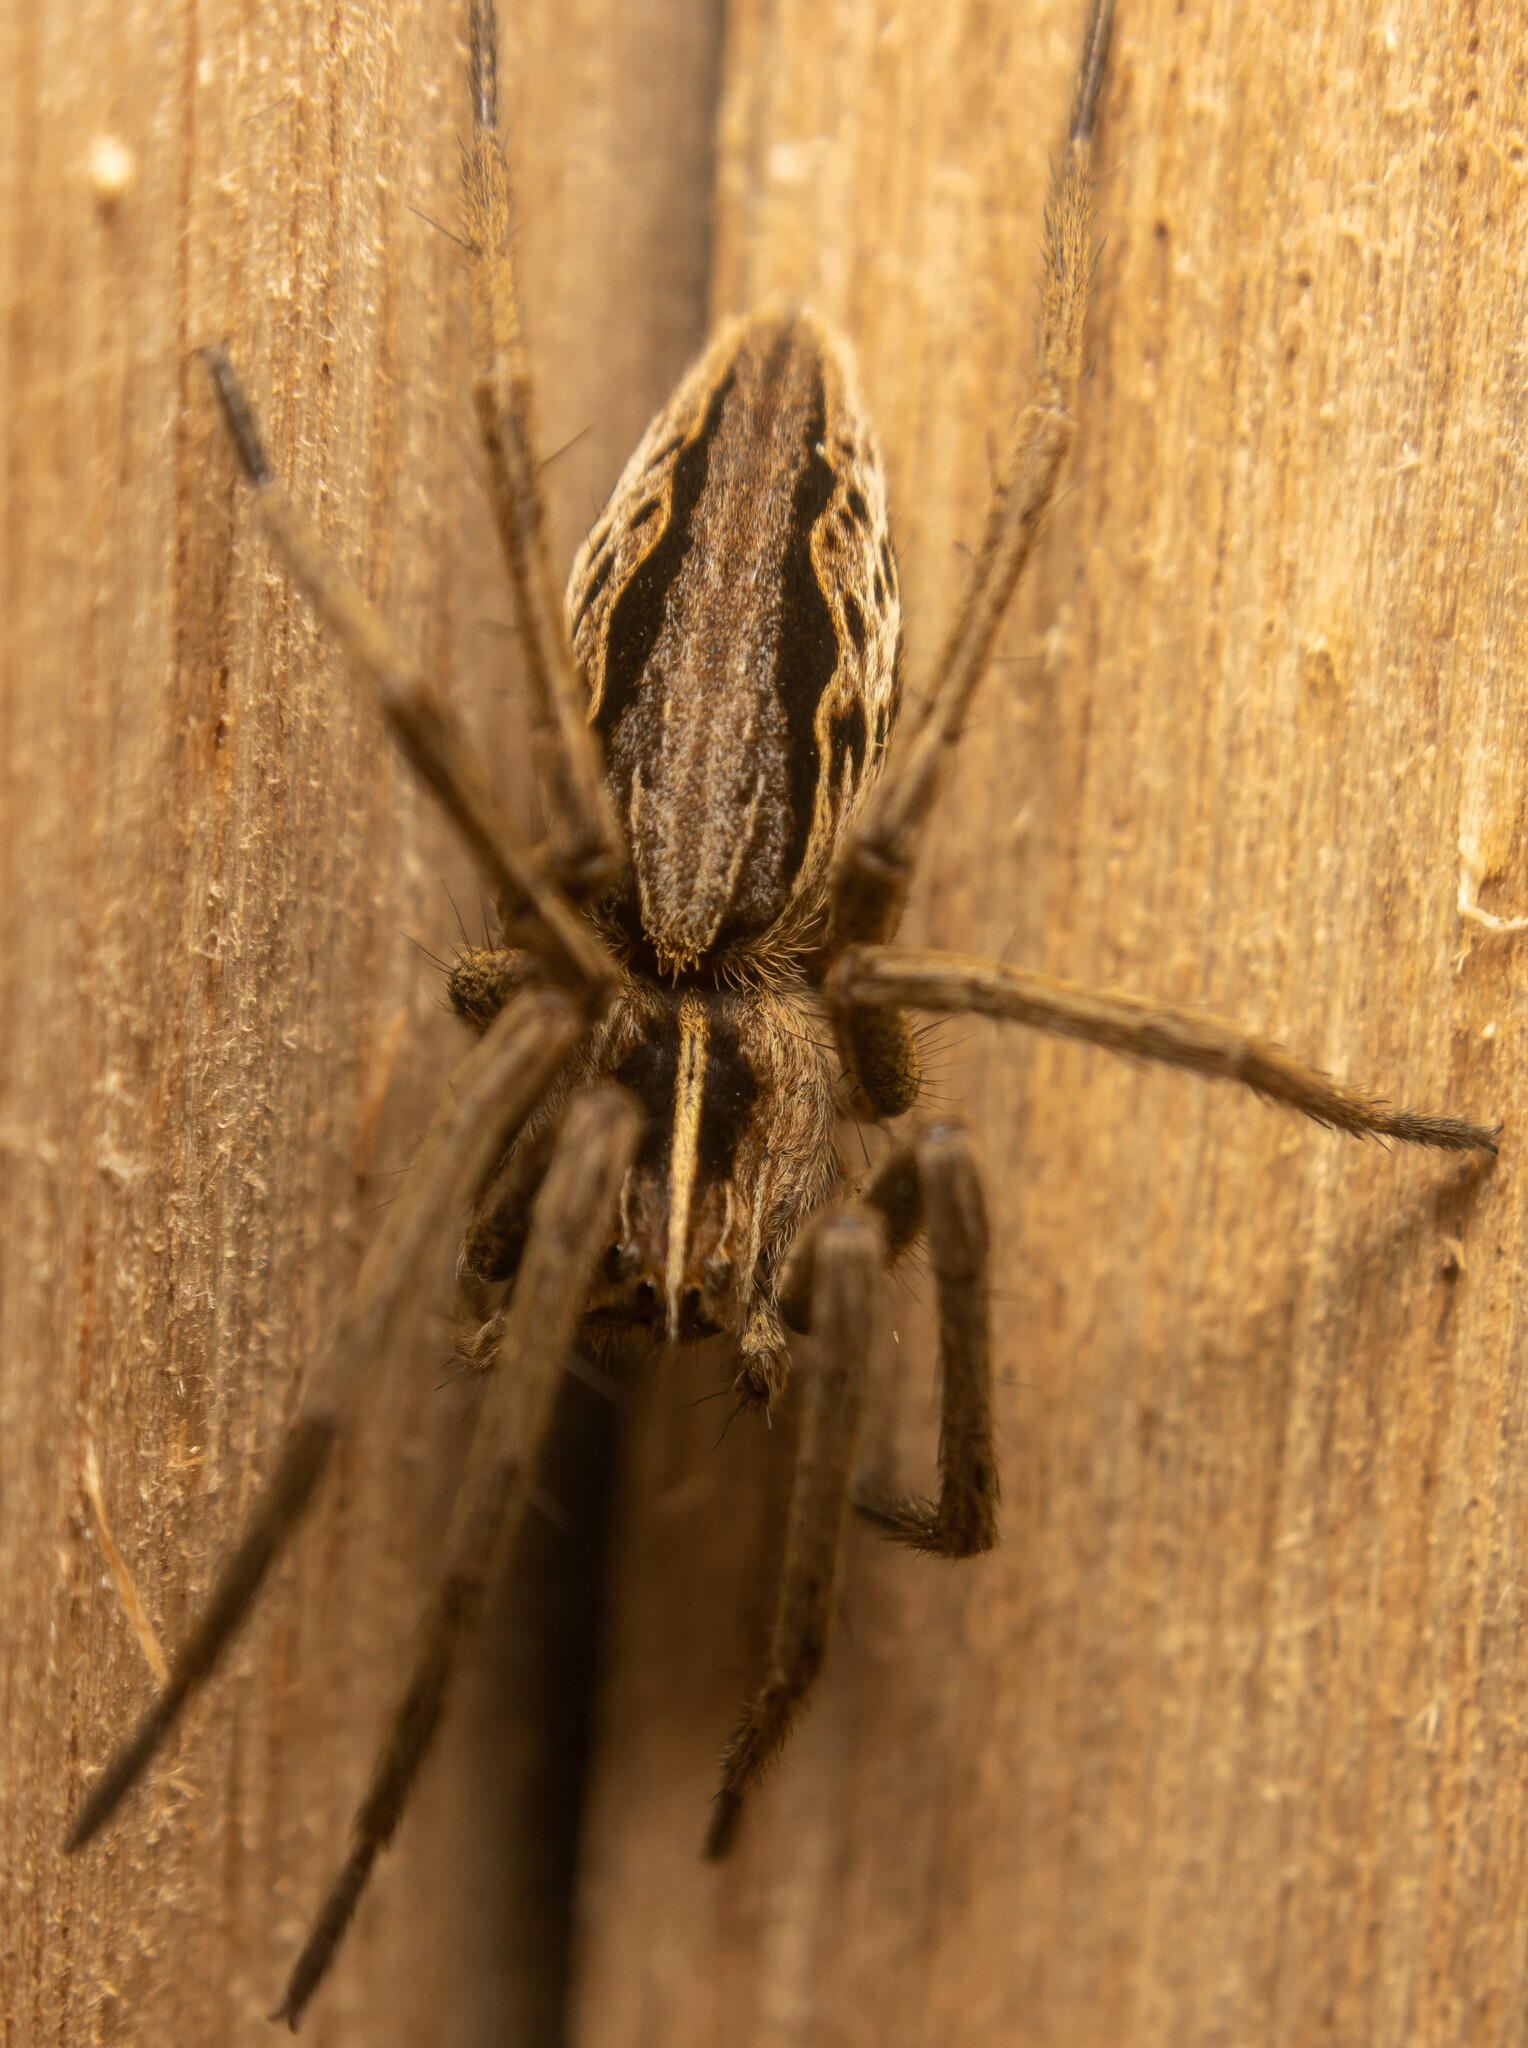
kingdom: Animalia
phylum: Arthropoda
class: Arachnida
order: Araneae
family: Pisauridae
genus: Pisaura
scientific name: Pisaura mirabilis
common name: Tent spider
